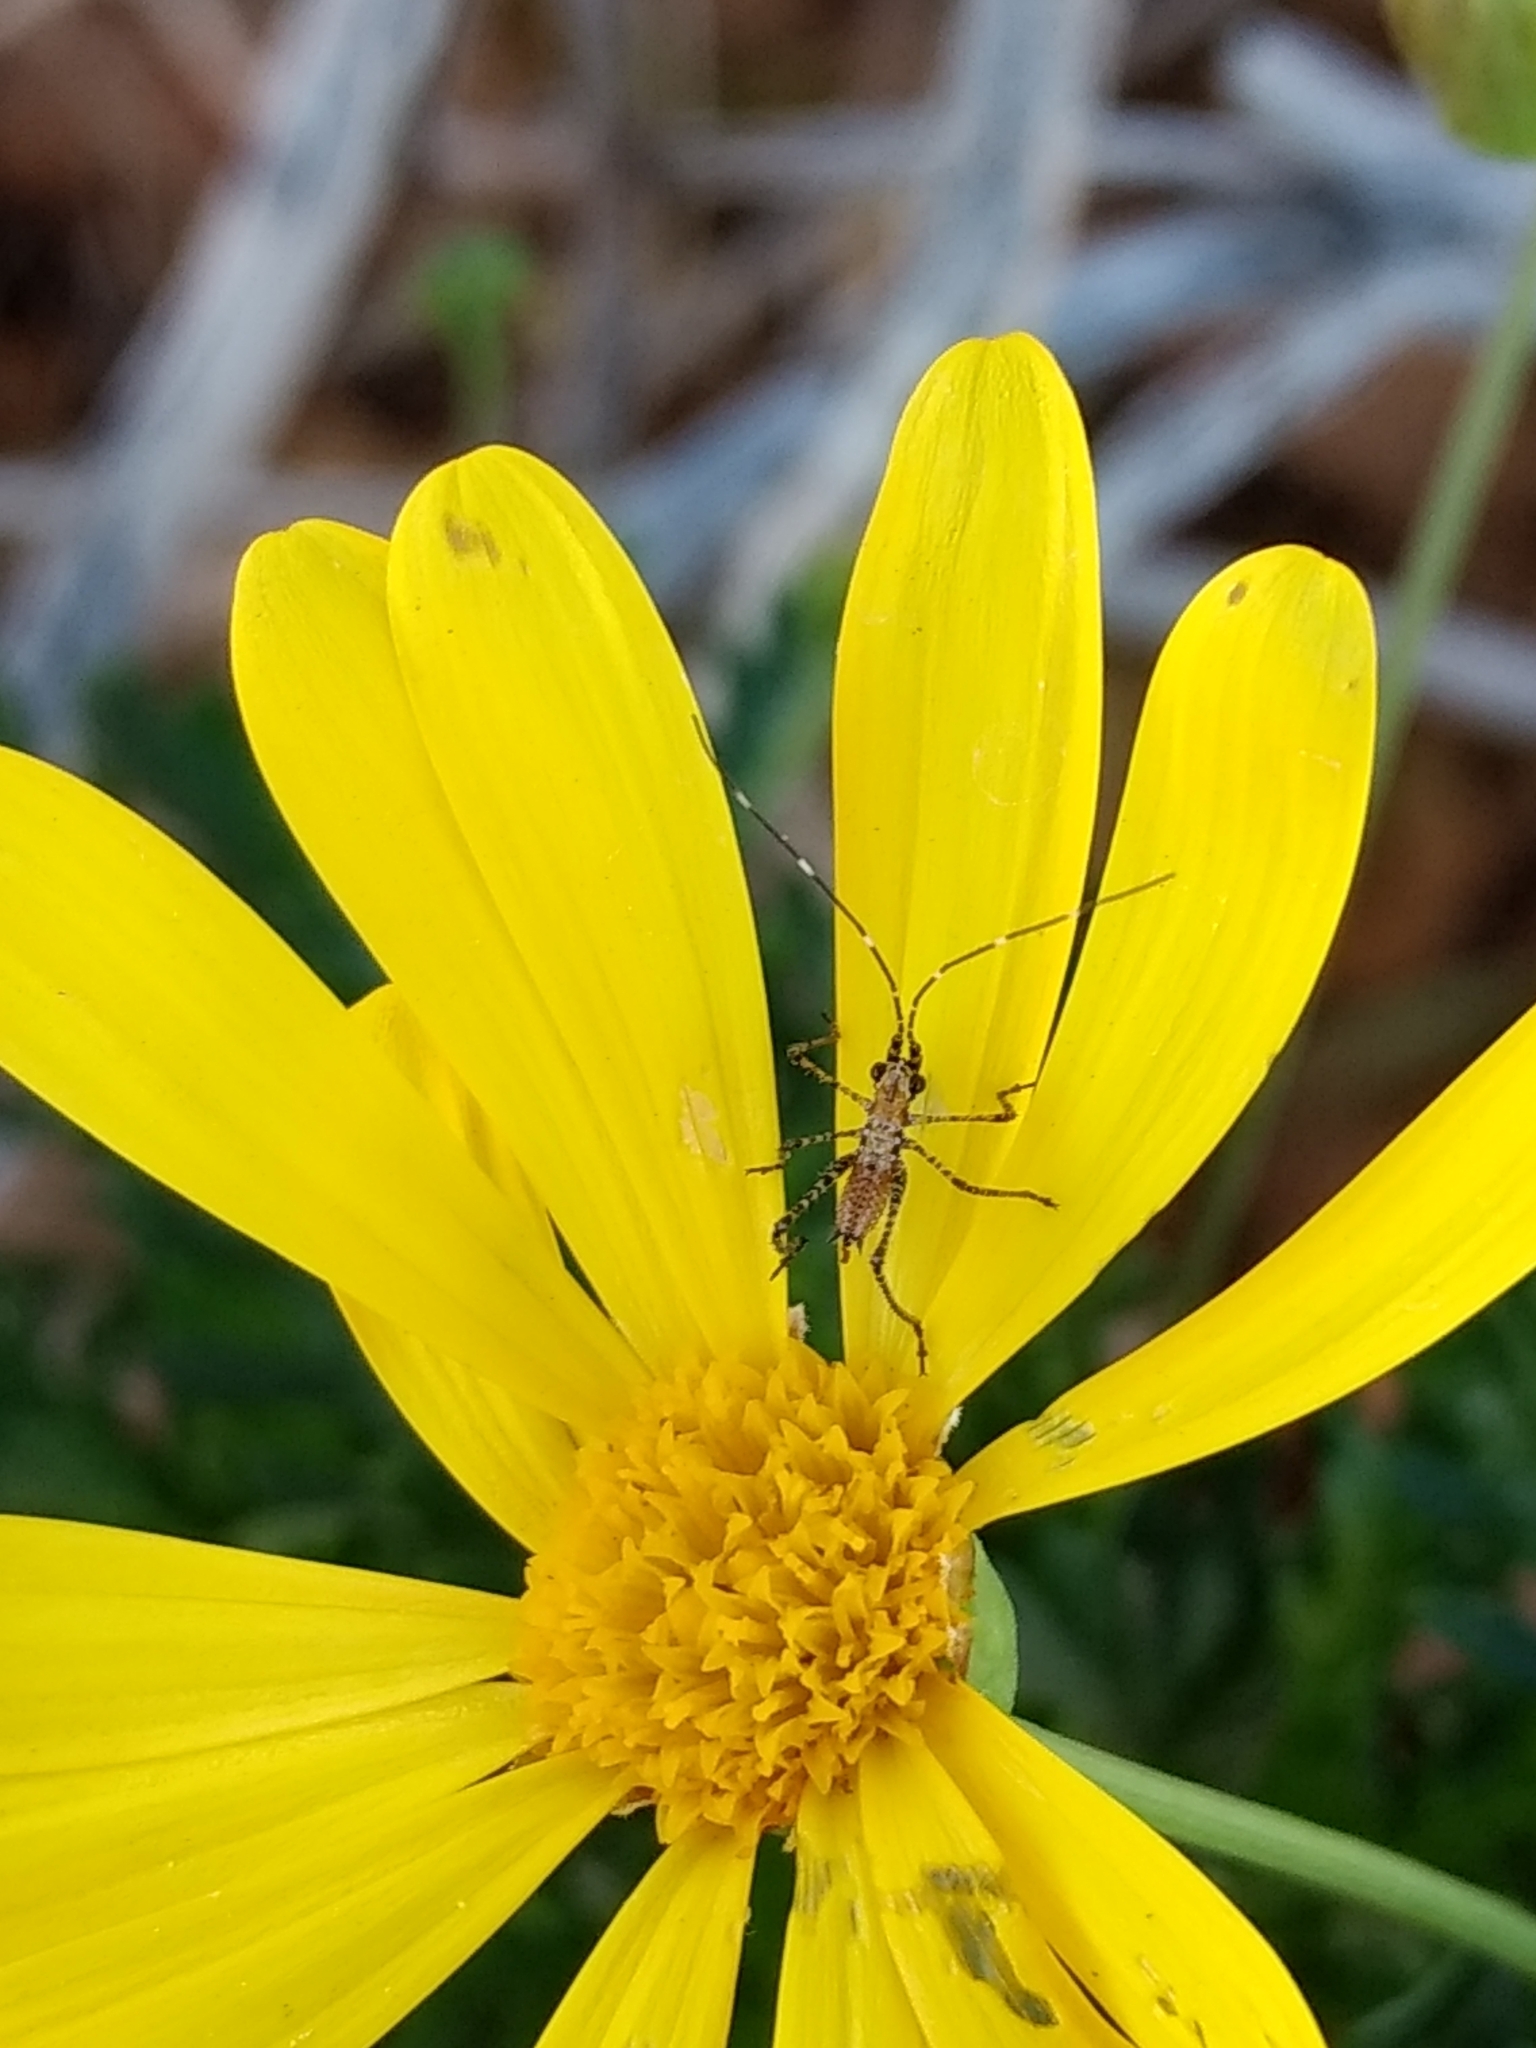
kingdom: Animalia
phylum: Arthropoda
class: Insecta
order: Orthoptera
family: Tettigoniidae
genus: Scudderia
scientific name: Scudderia
